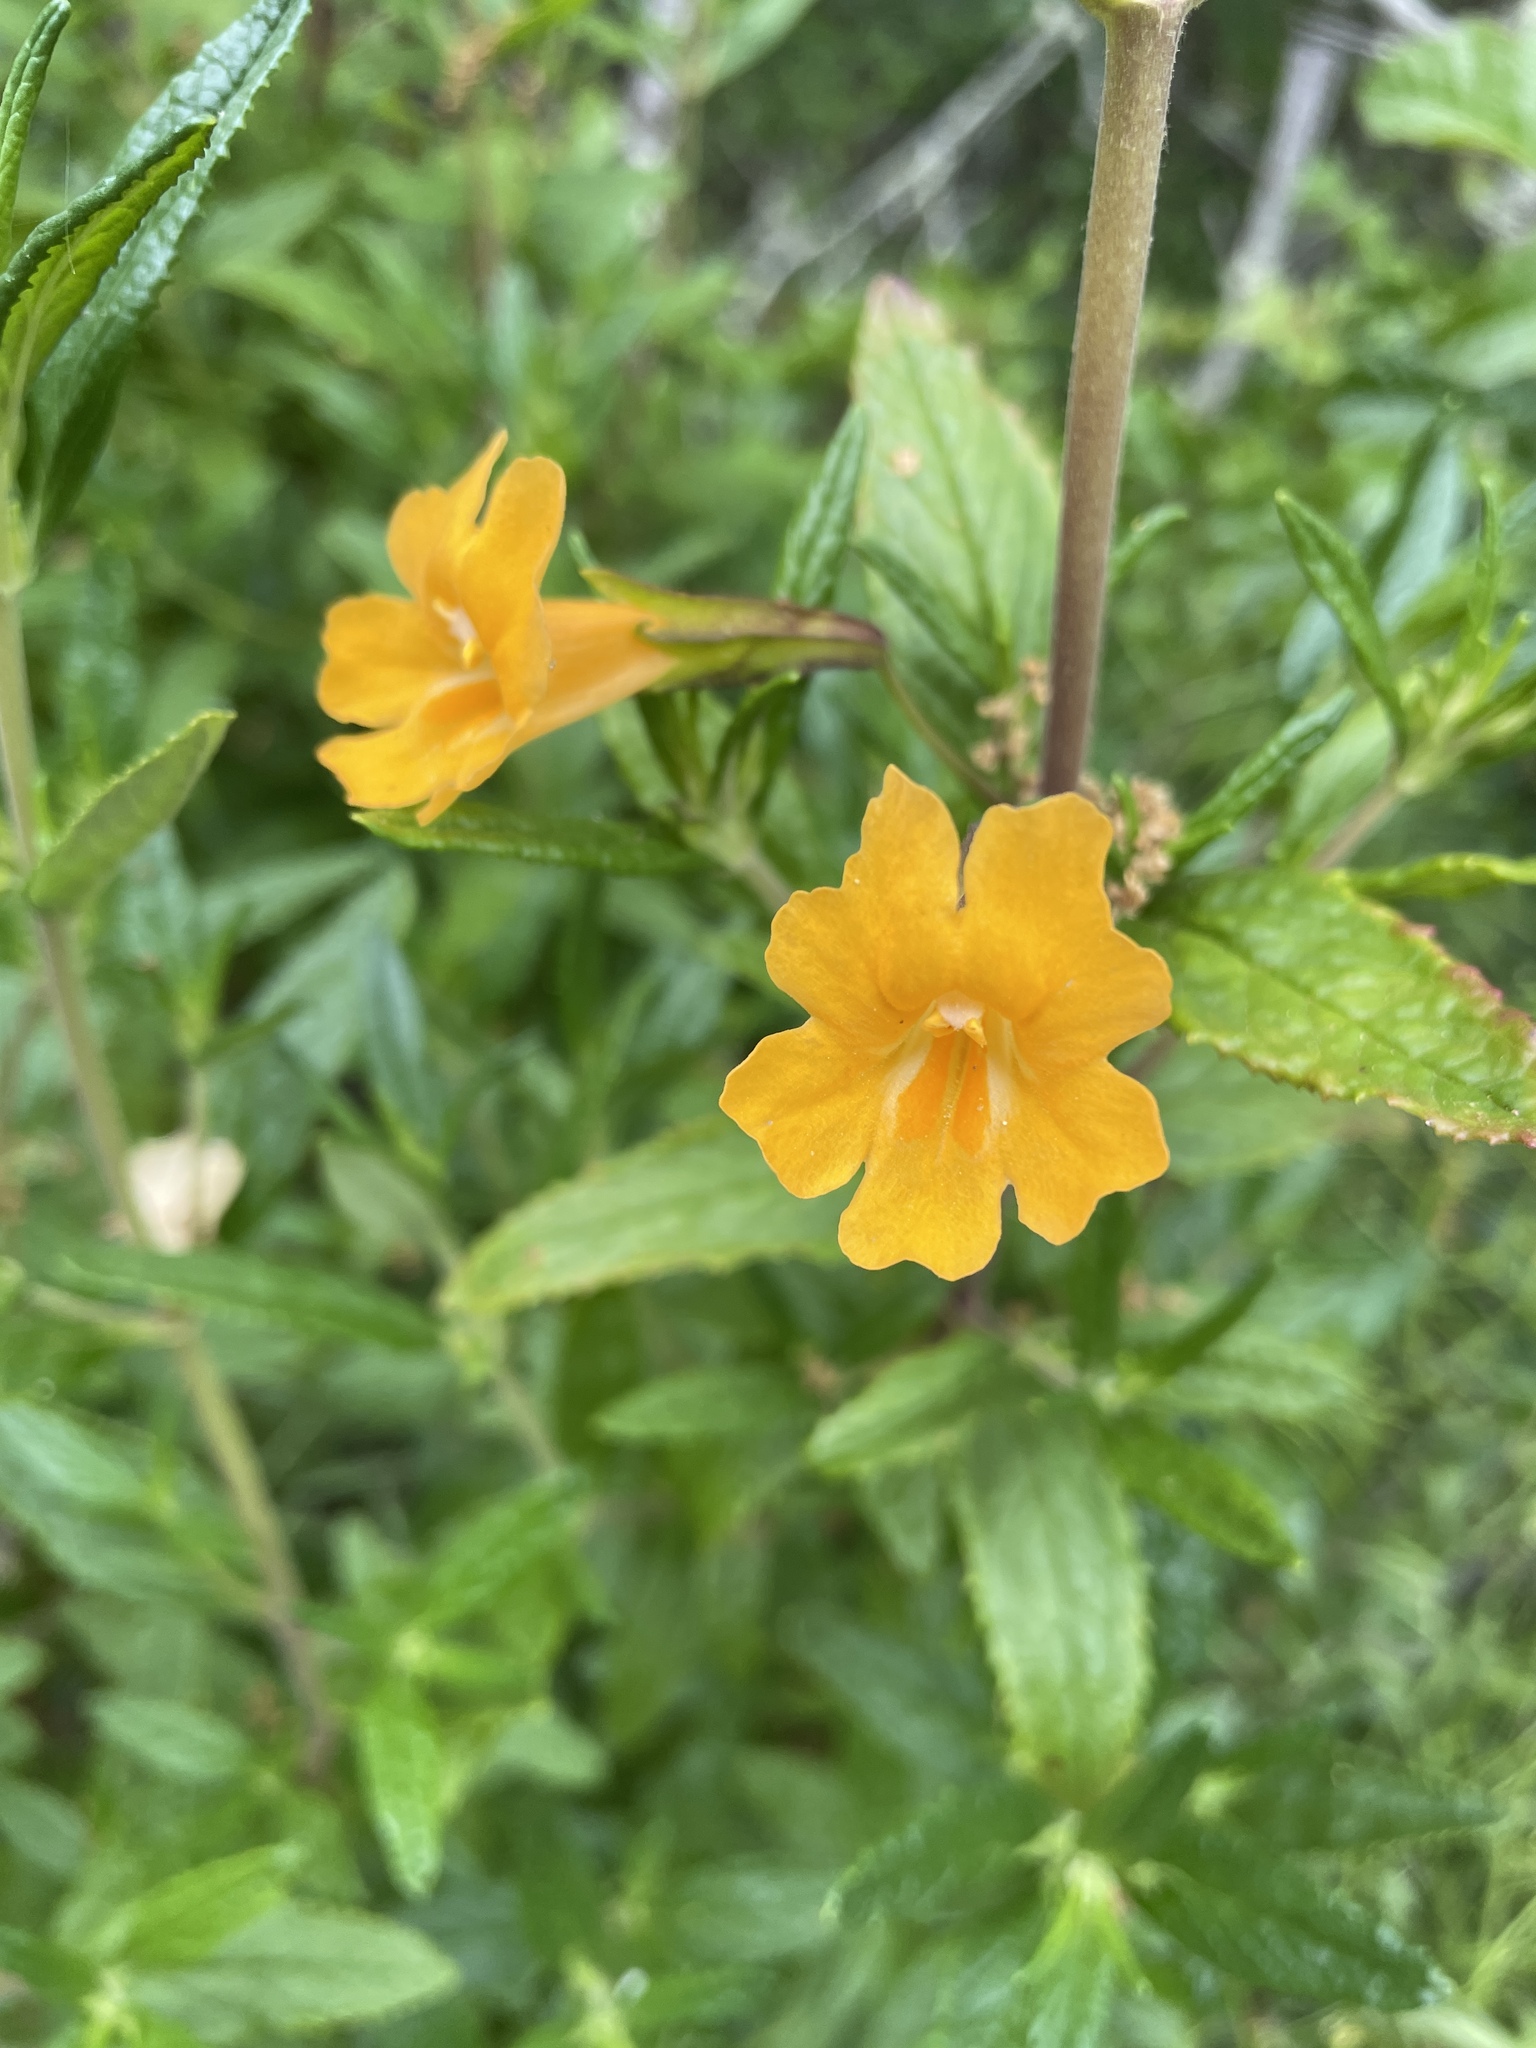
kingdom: Plantae
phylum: Tracheophyta
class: Magnoliopsida
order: Lamiales
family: Phrymaceae
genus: Diplacus
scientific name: Diplacus aurantiacus
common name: Bush monkey-flower
